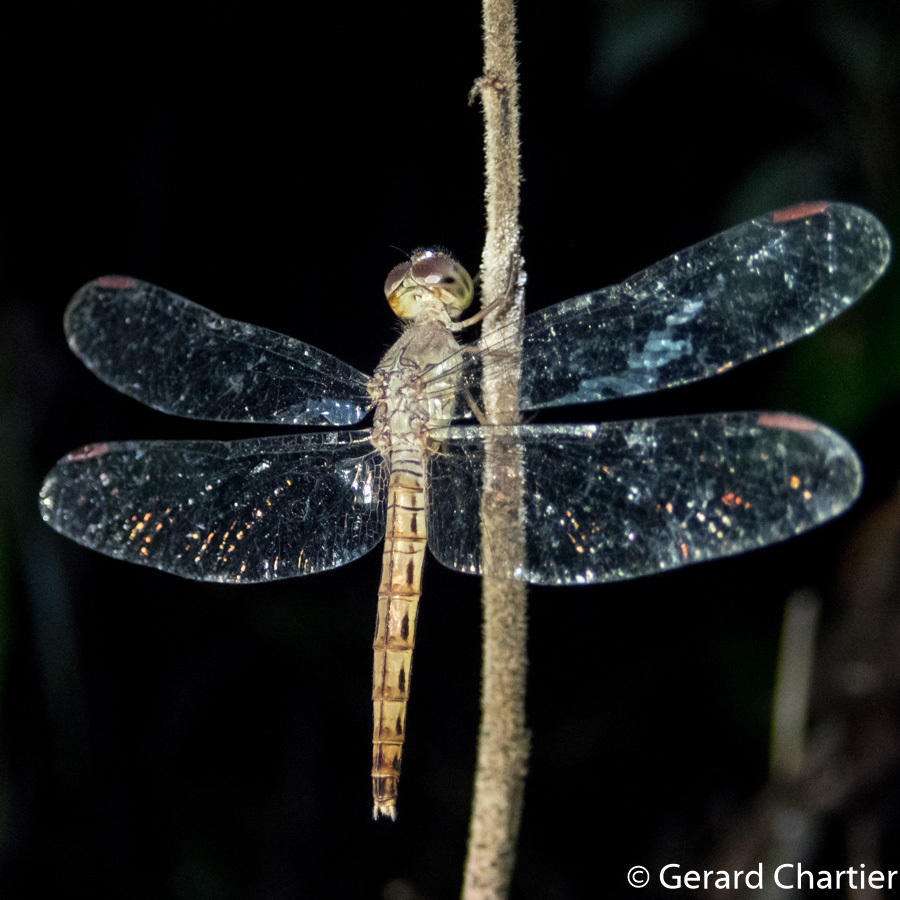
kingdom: Animalia
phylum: Arthropoda
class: Insecta
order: Odonata
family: Libellulidae
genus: Neurothemis
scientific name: Neurothemis fluctuans
